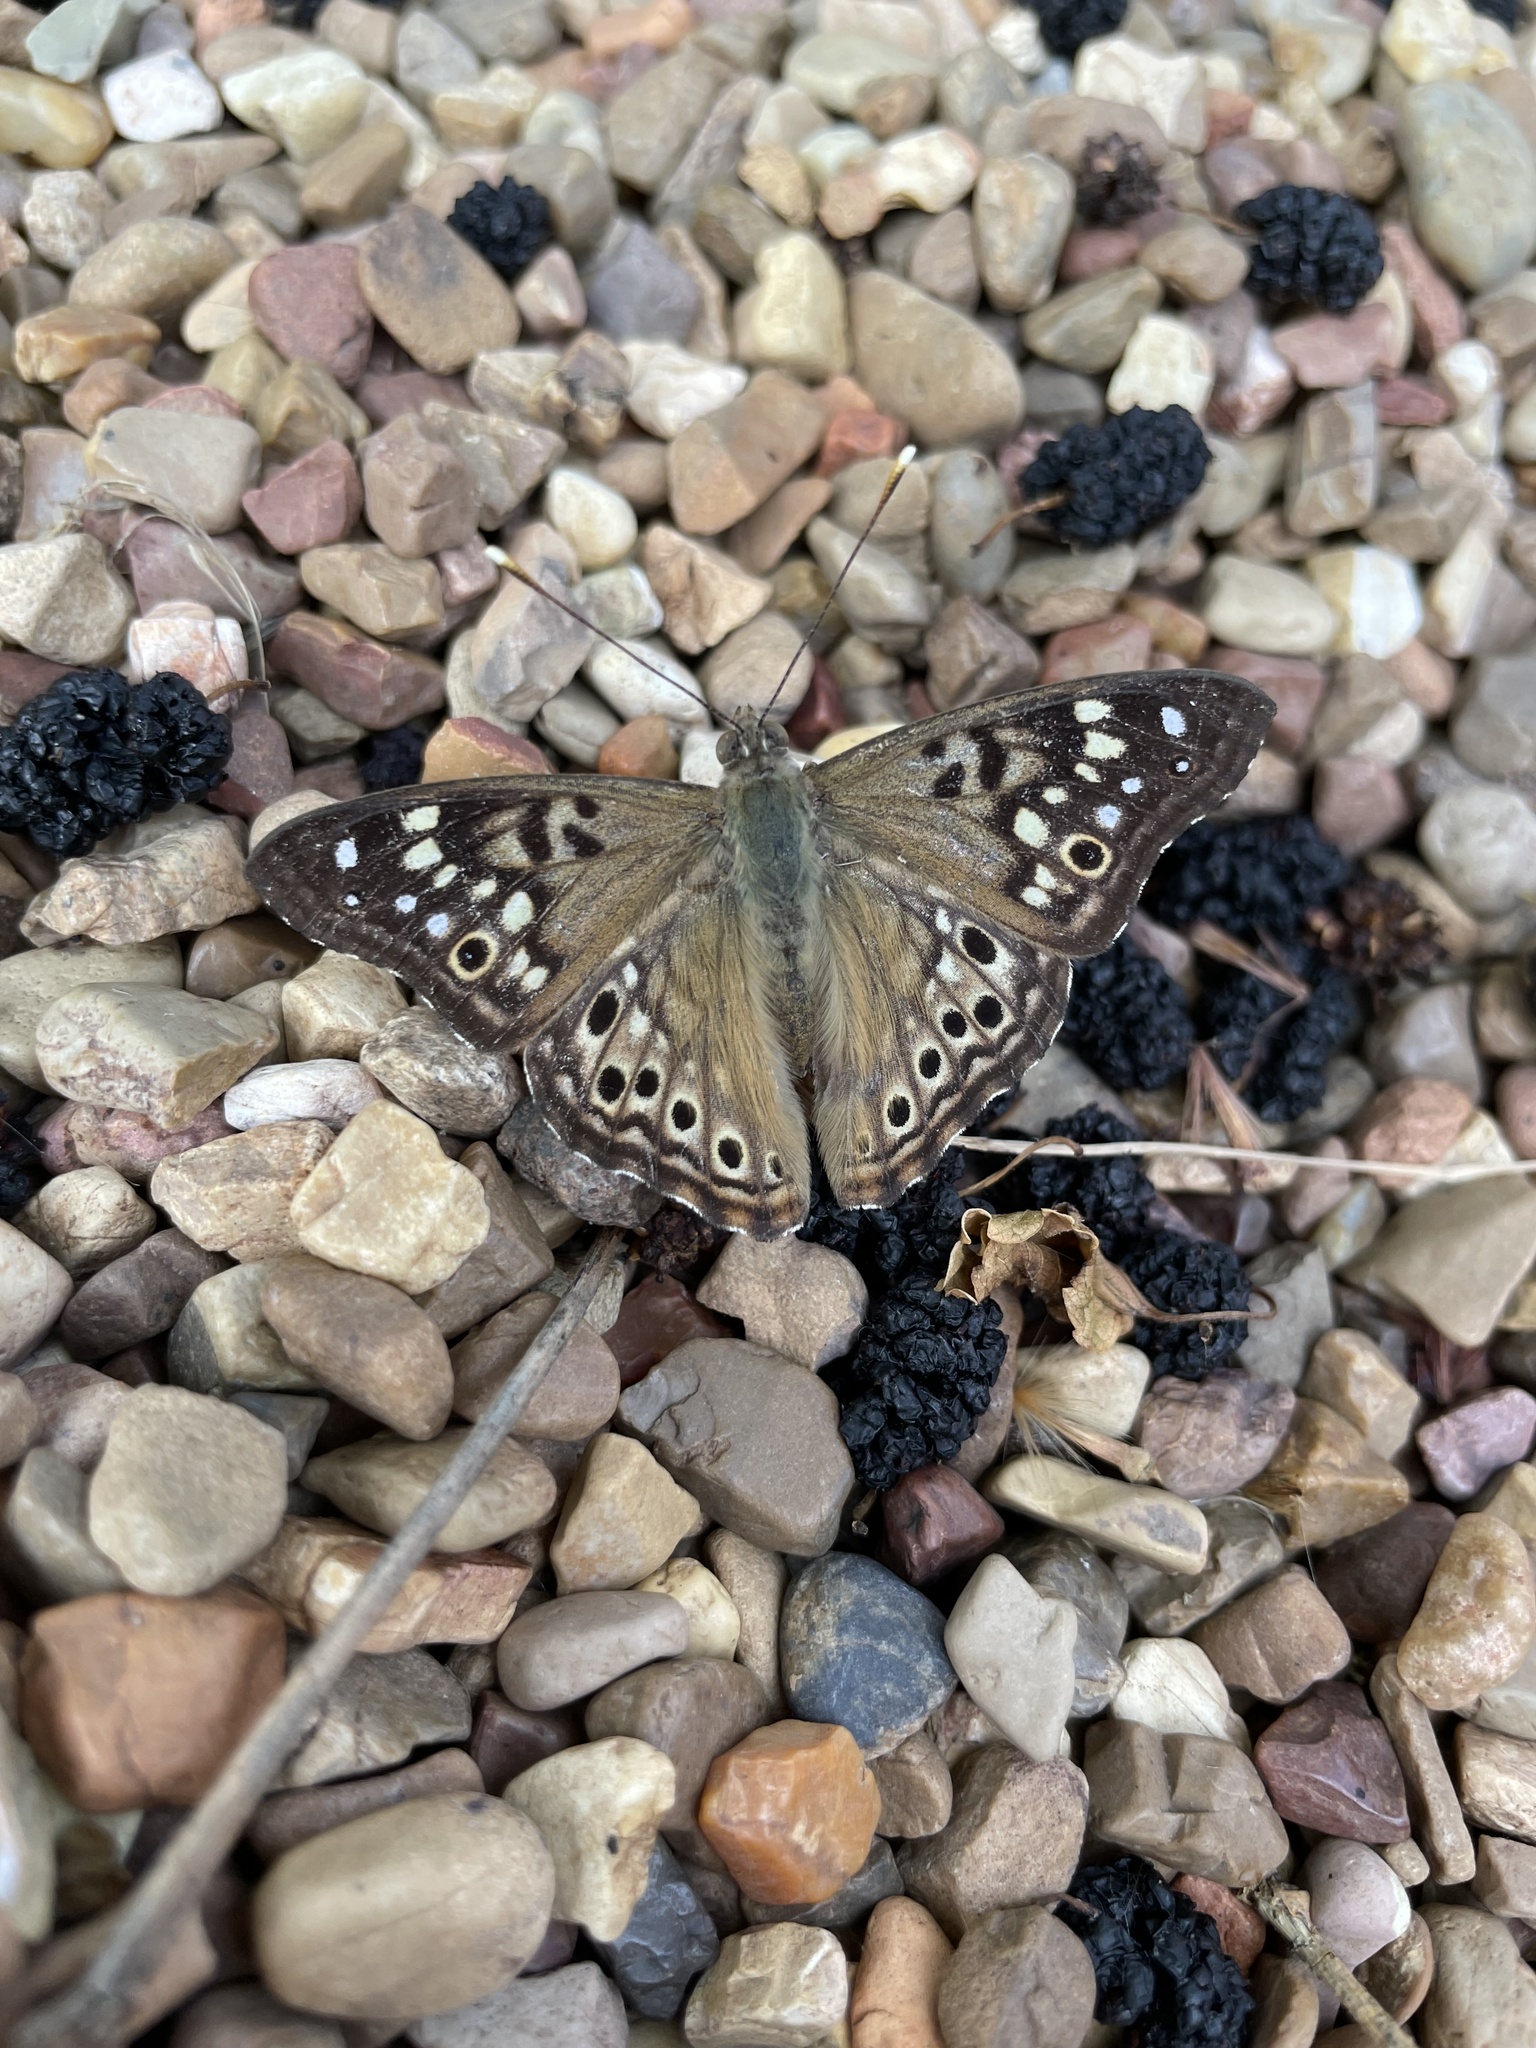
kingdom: Animalia
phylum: Arthropoda
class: Insecta
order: Lepidoptera
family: Nymphalidae
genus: Asterocampa
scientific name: Asterocampa celtis
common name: Hackberry emperor
